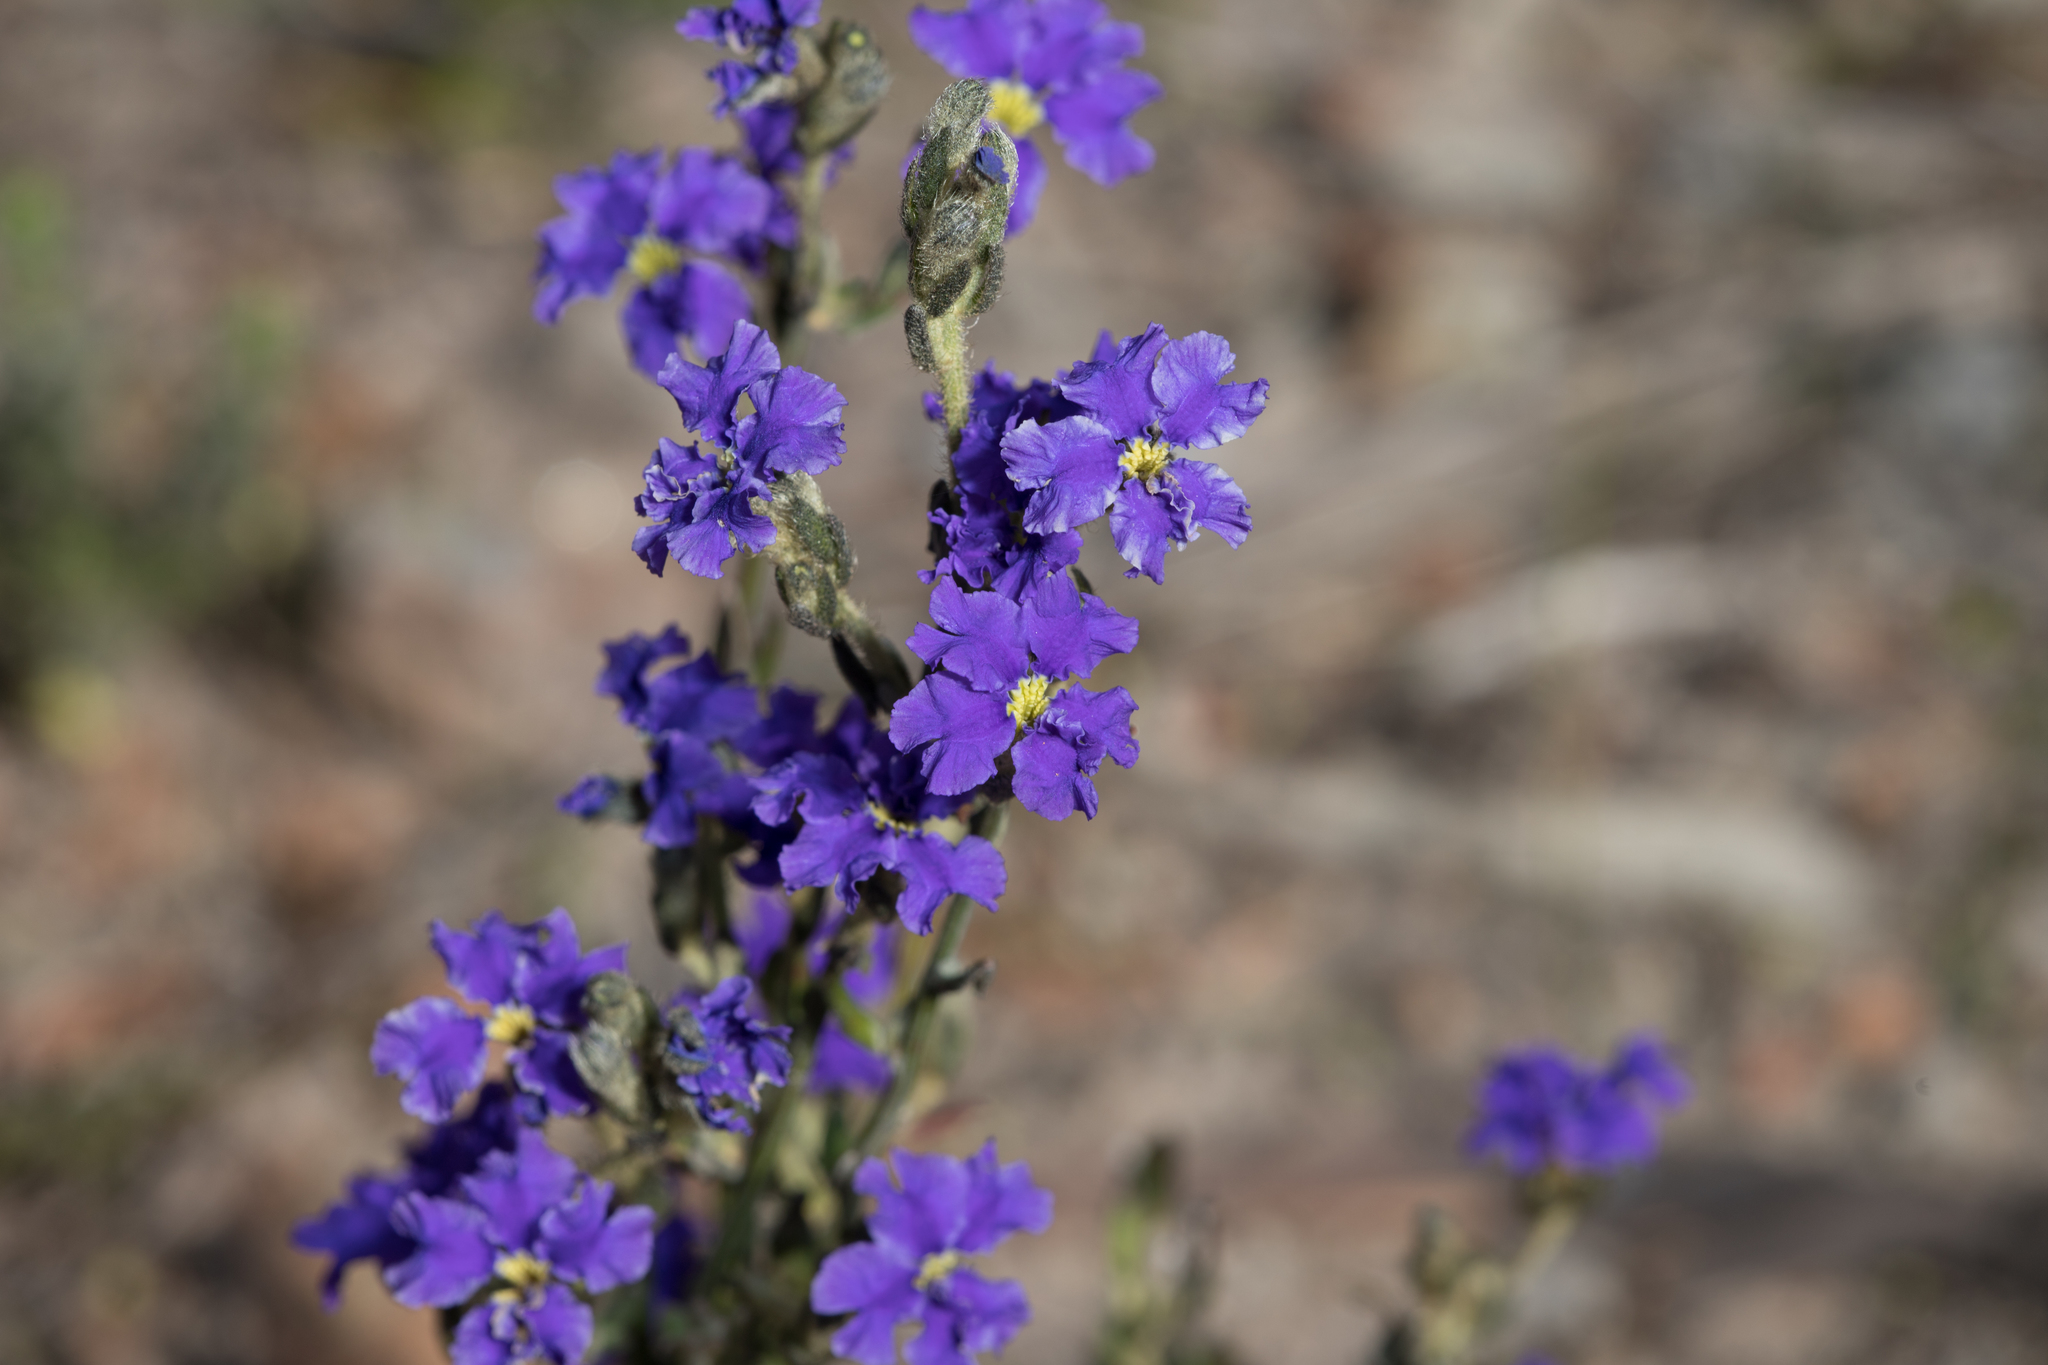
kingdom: Plantae
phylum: Tracheophyta
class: Magnoliopsida
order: Asterales
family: Goodeniaceae
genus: Dampiera
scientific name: Dampiera dysantha
